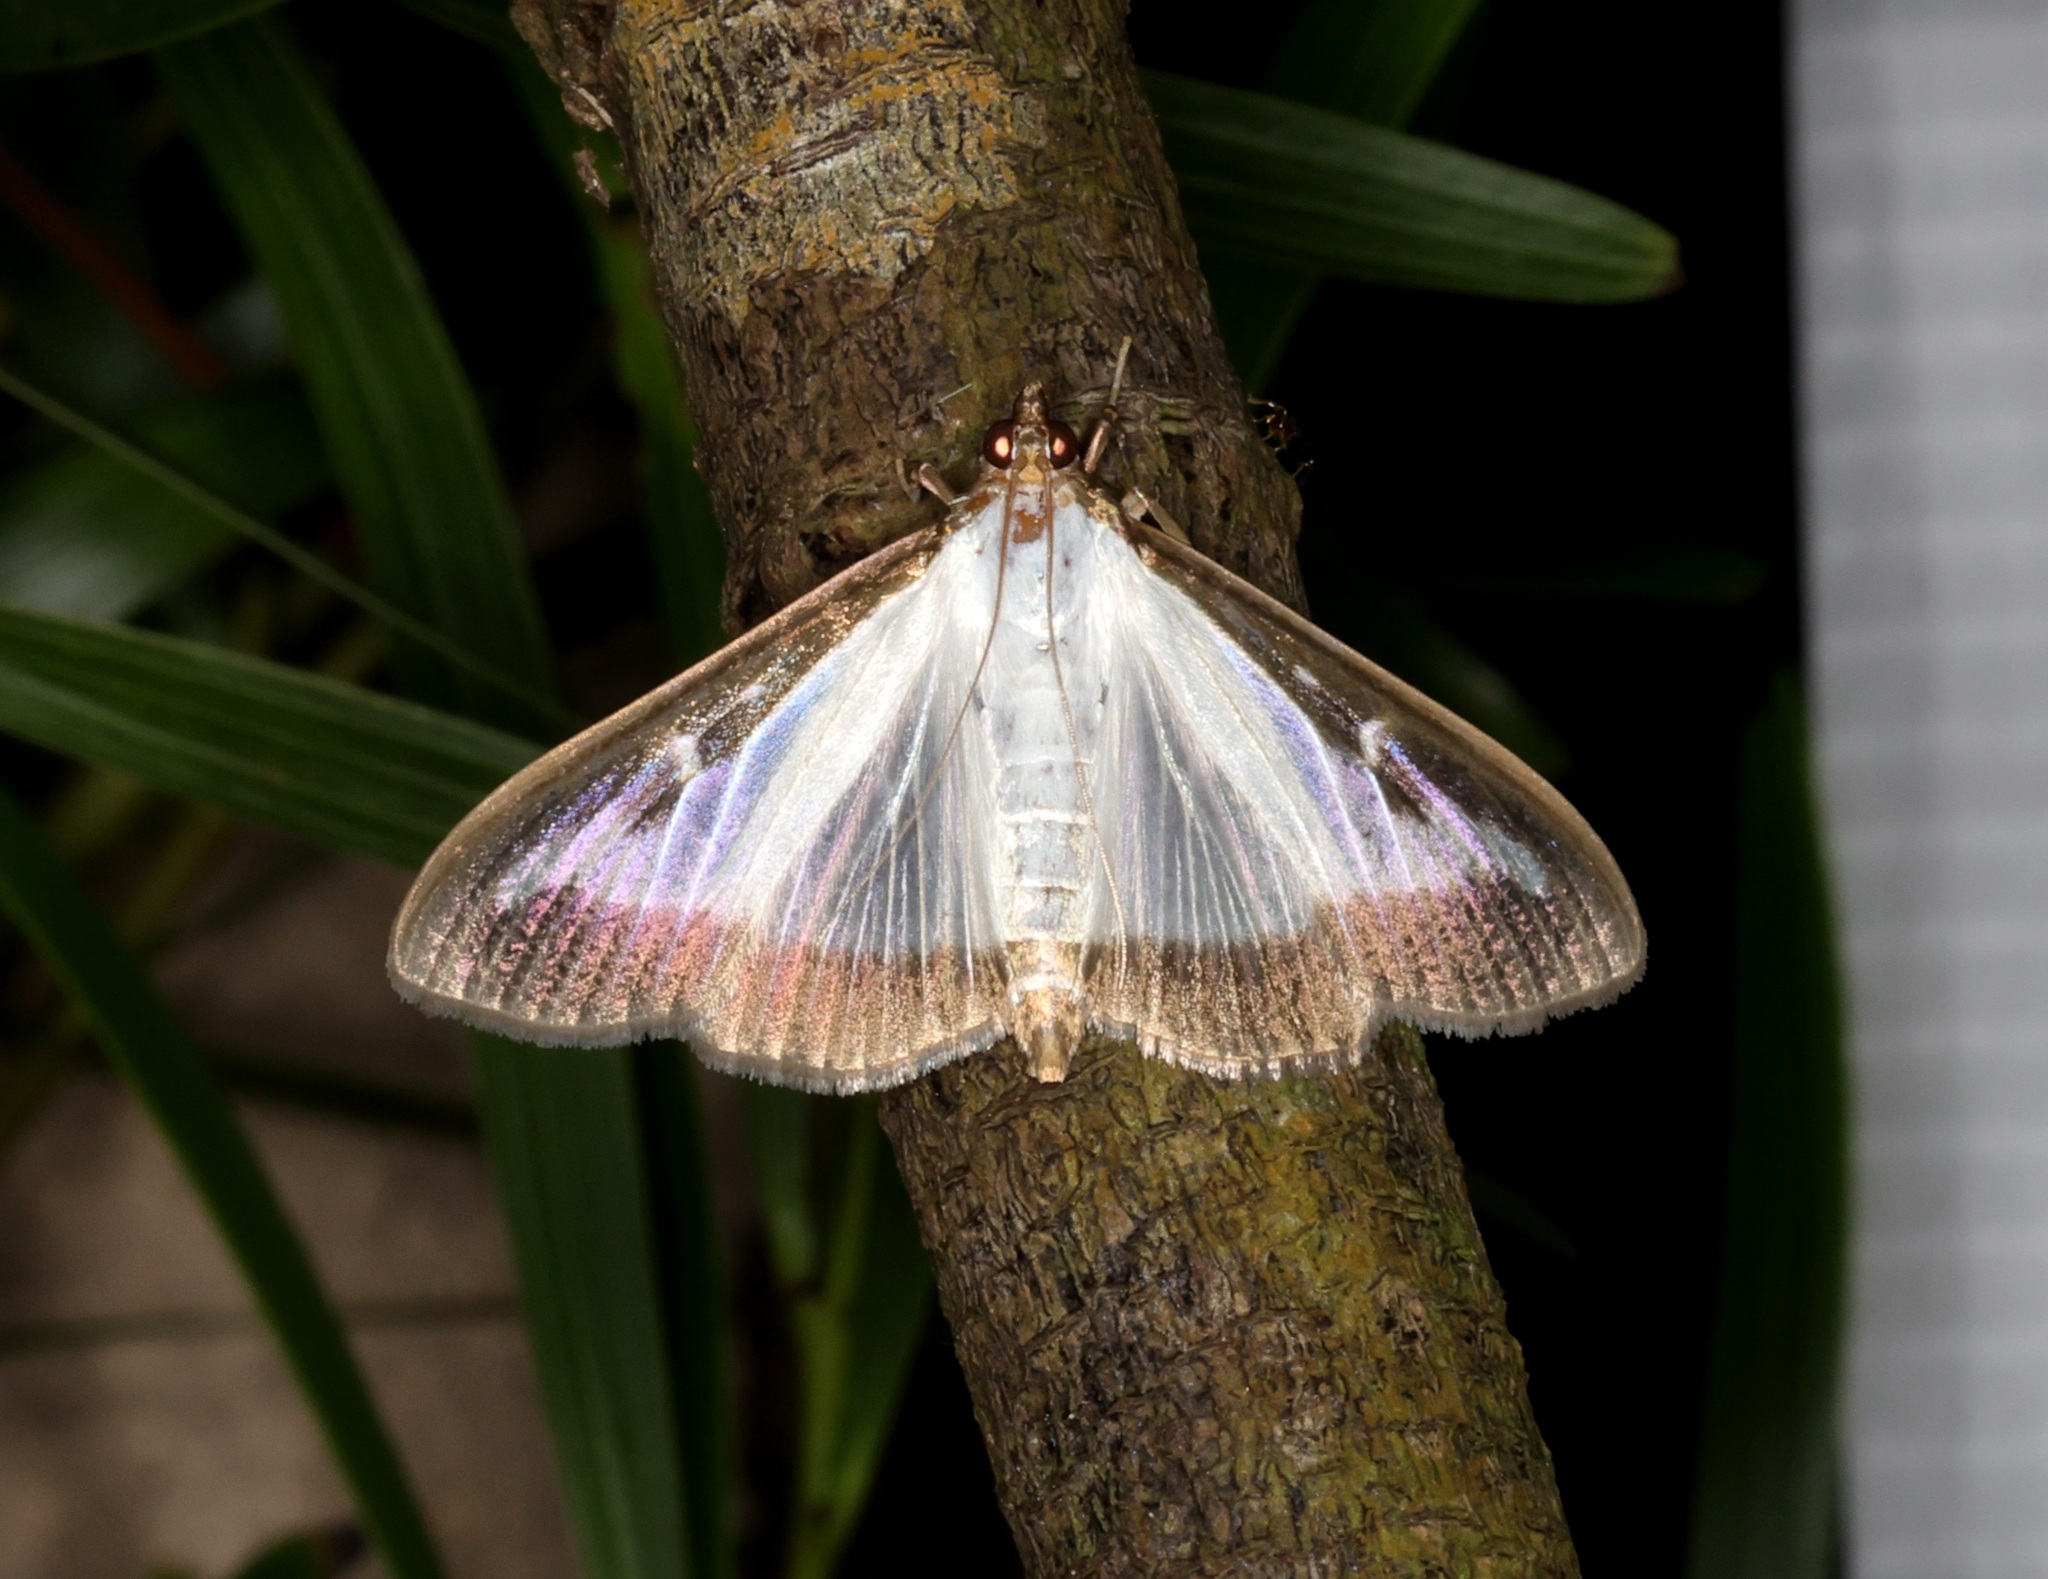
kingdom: Animalia
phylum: Arthropoda
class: Insecta
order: Lepidoptera
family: Crambidae
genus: Cydalima
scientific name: Cydalima perspectalis
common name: Box tree moth
